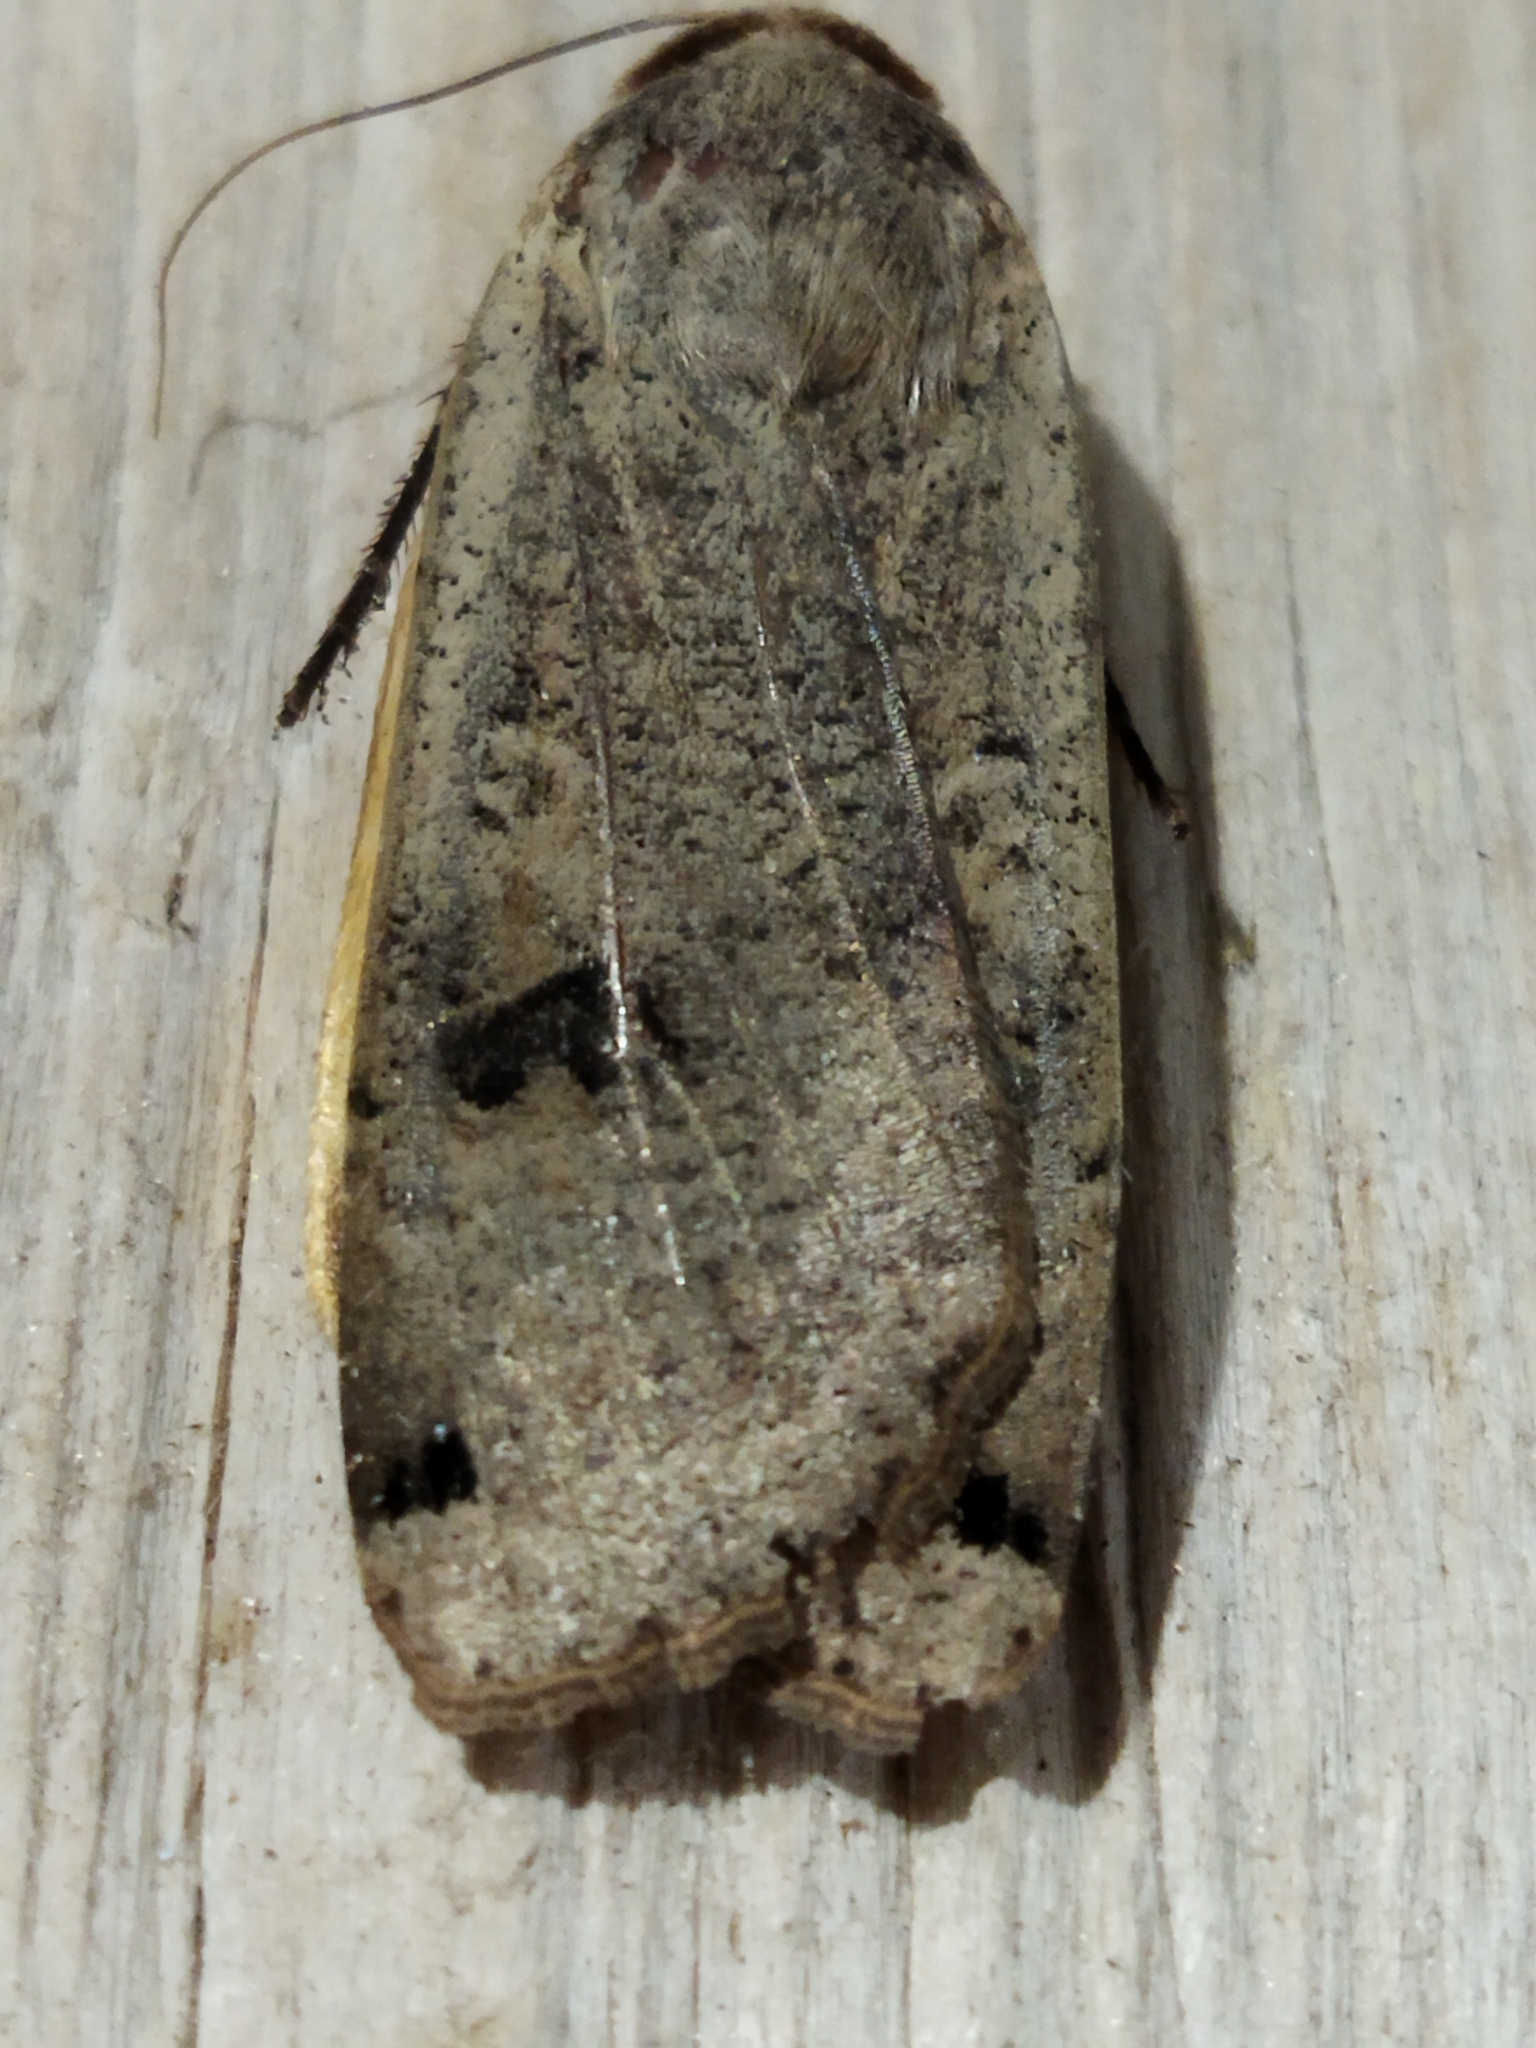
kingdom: Animalia
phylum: Arthropoda
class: Insecta
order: Lepidoptera
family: Noctuidae
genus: Noctua
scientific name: Noctua pronuba
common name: Large yellow underwing
